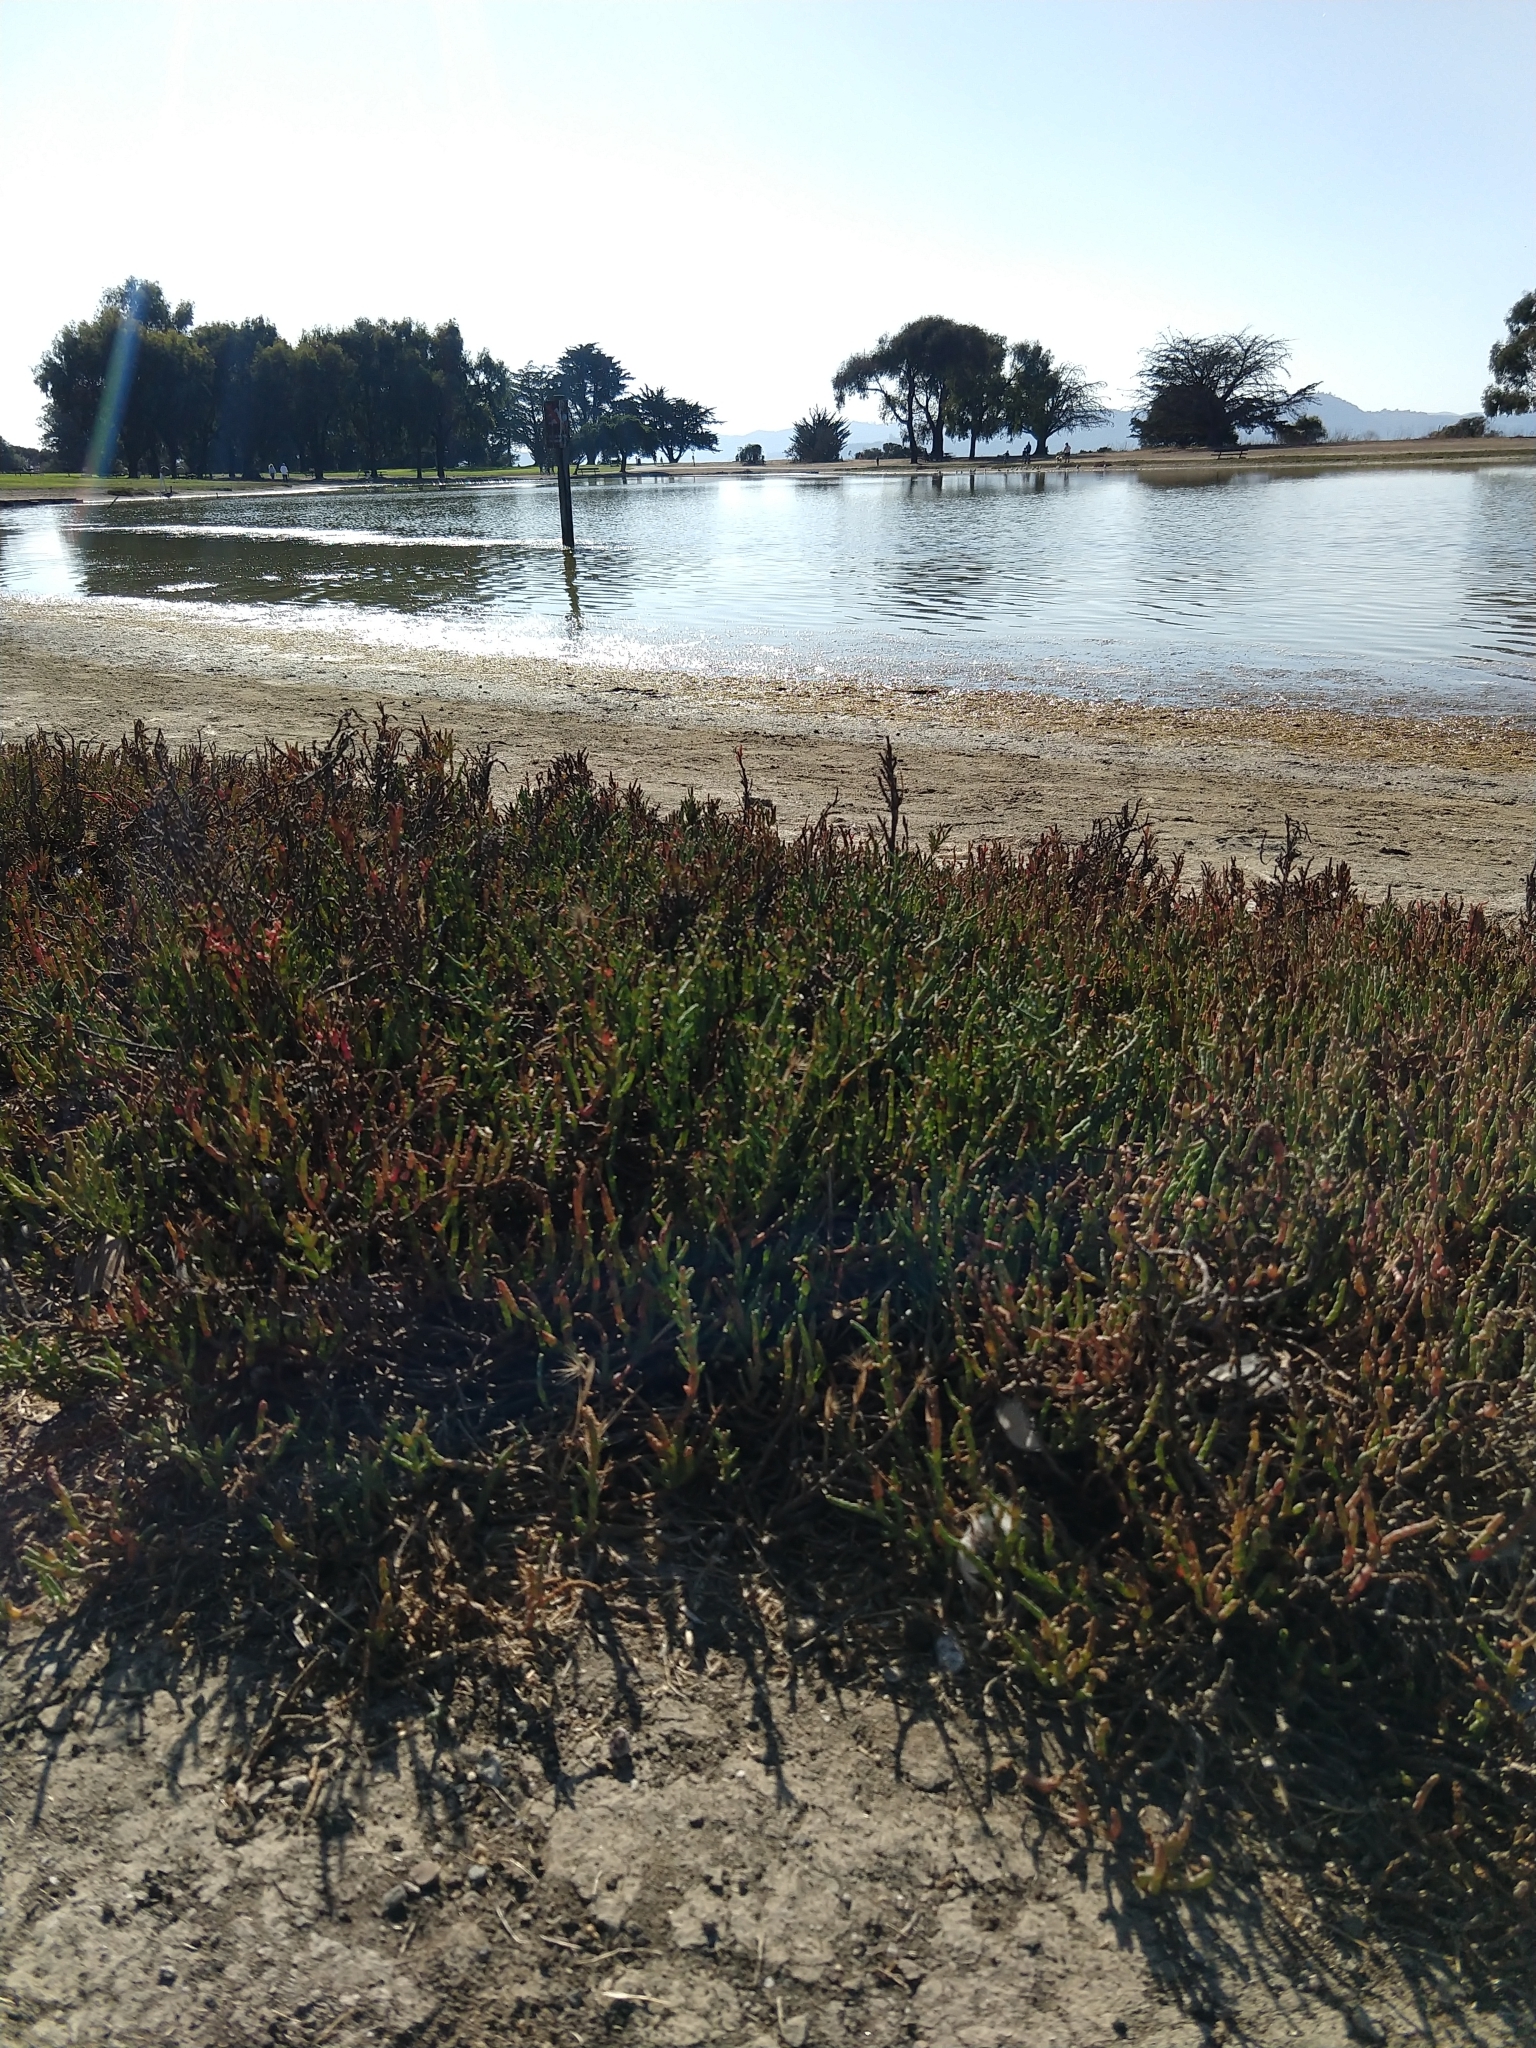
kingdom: Plantae
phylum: Tracheophyta
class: Magnoliopsida
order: Caryophyllales
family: Amaranthaceae
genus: Salicornia
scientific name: Salicornia pacifica
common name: Pacific glasswort
